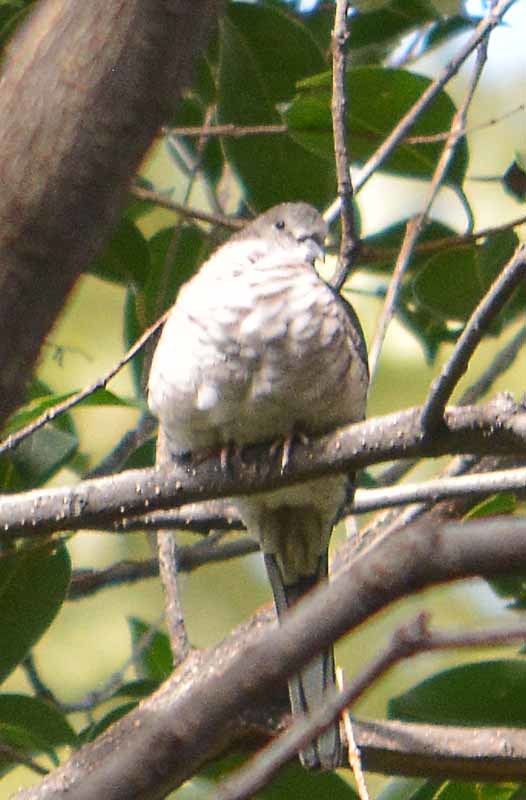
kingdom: Animalia
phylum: Chordata
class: Aves
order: Columbiformes
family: Columbidae
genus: Columbina
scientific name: Columbina inca
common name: Inca dove
